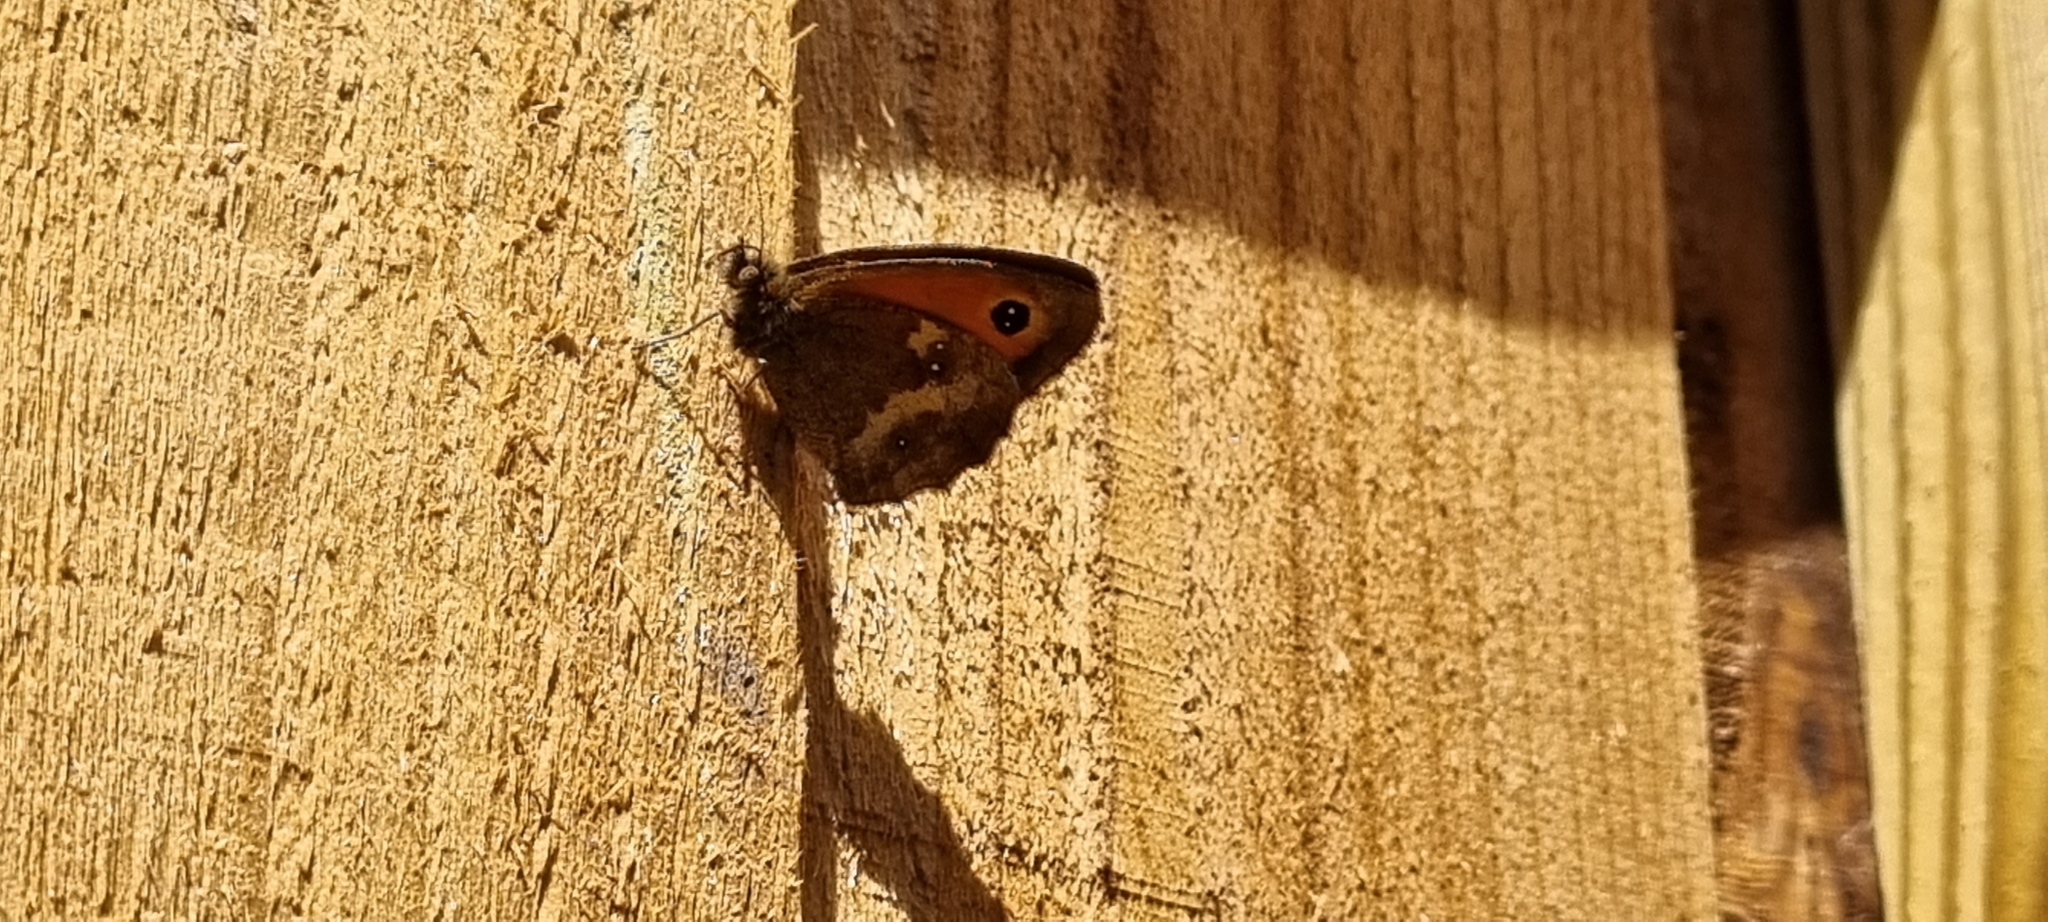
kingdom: Animalia
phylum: Arthropoda
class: Insecta
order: Lepidoptera
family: Nymphalidae
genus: Pyronia
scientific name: Pyronia tithonus
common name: Gatekeeper
